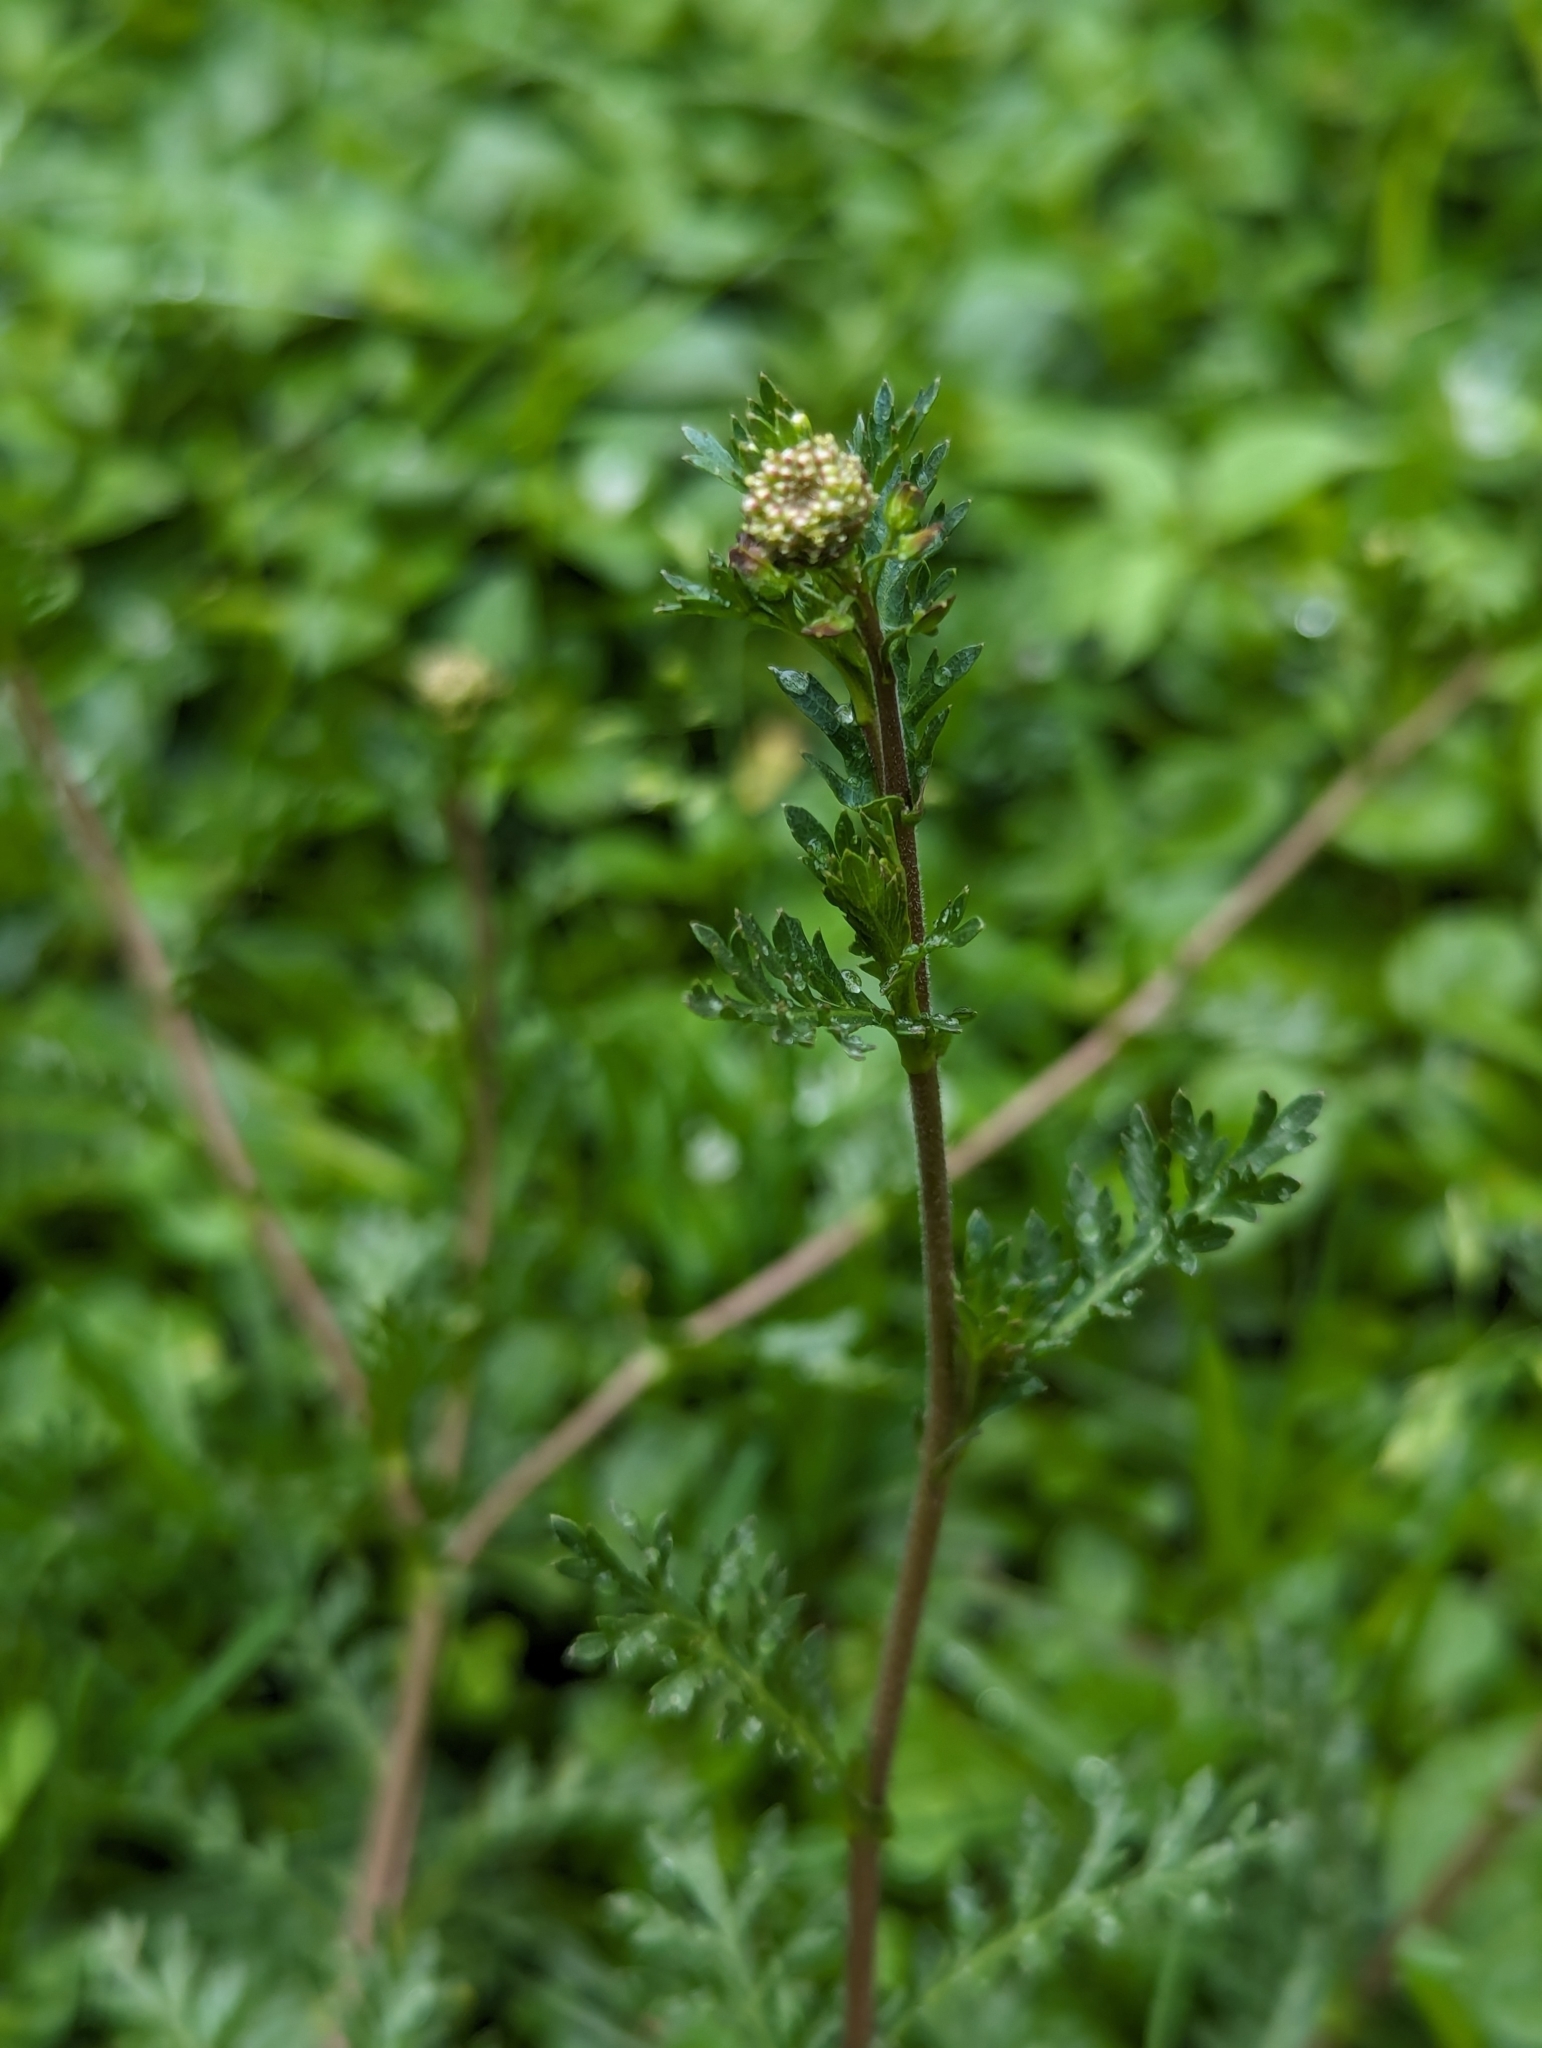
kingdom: Plantae
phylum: Tracheophyta
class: Magnoliopsida
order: Brassicales
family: Brassicaceae
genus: Lepidium
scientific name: Lepidium bipinnatifidum
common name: Wayside pepperwort
